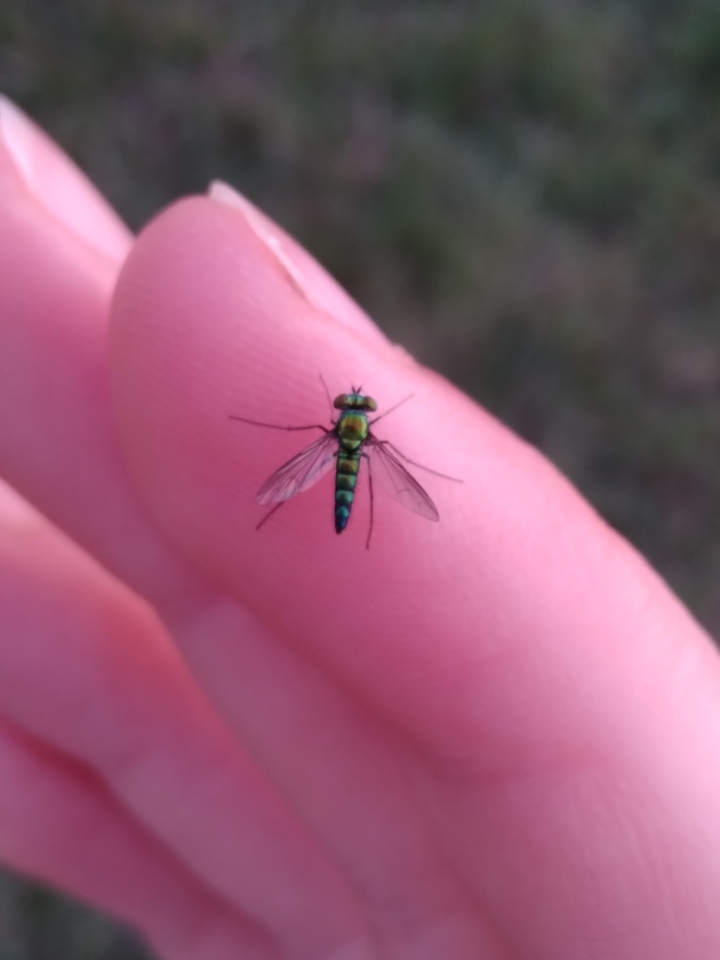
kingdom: Animalia
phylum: Arthropoda
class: Insecta
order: Diptera
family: Dolichopodidae
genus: Condylostylus
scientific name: Condylostylus longicornis
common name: Long-legged fly
